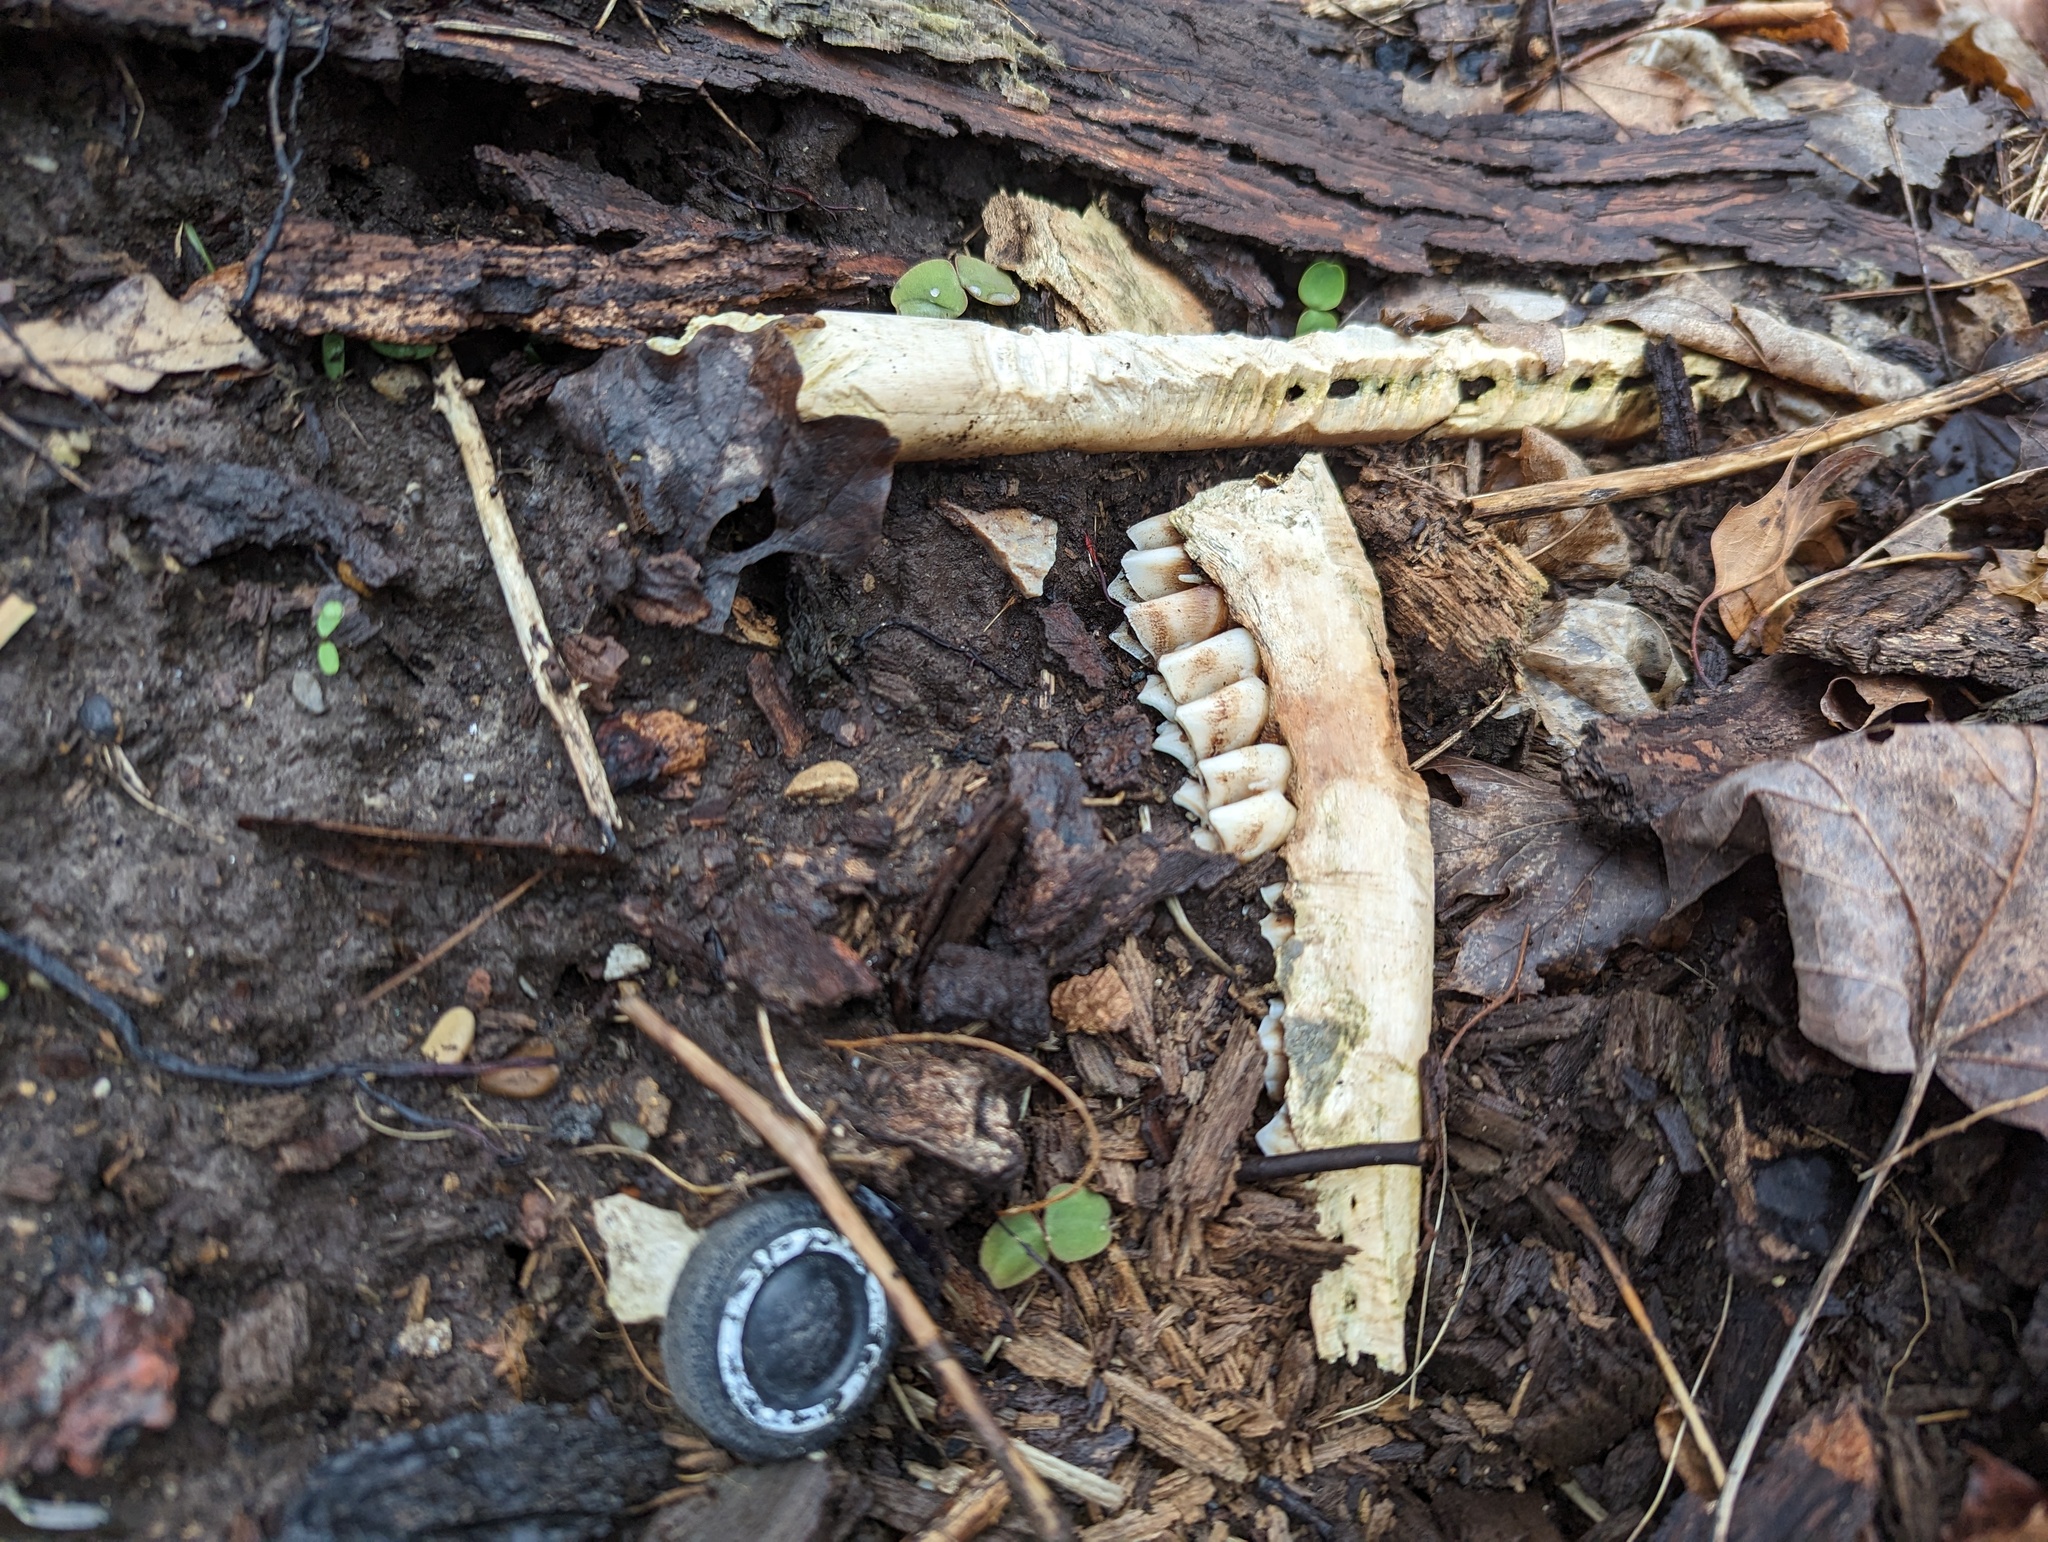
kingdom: Animalia
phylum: Chordata
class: Mammalia
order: Artiodactyla
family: Cervidae
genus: Odocoileus
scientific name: Odocoileus virginianus
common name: White-tailed deer
